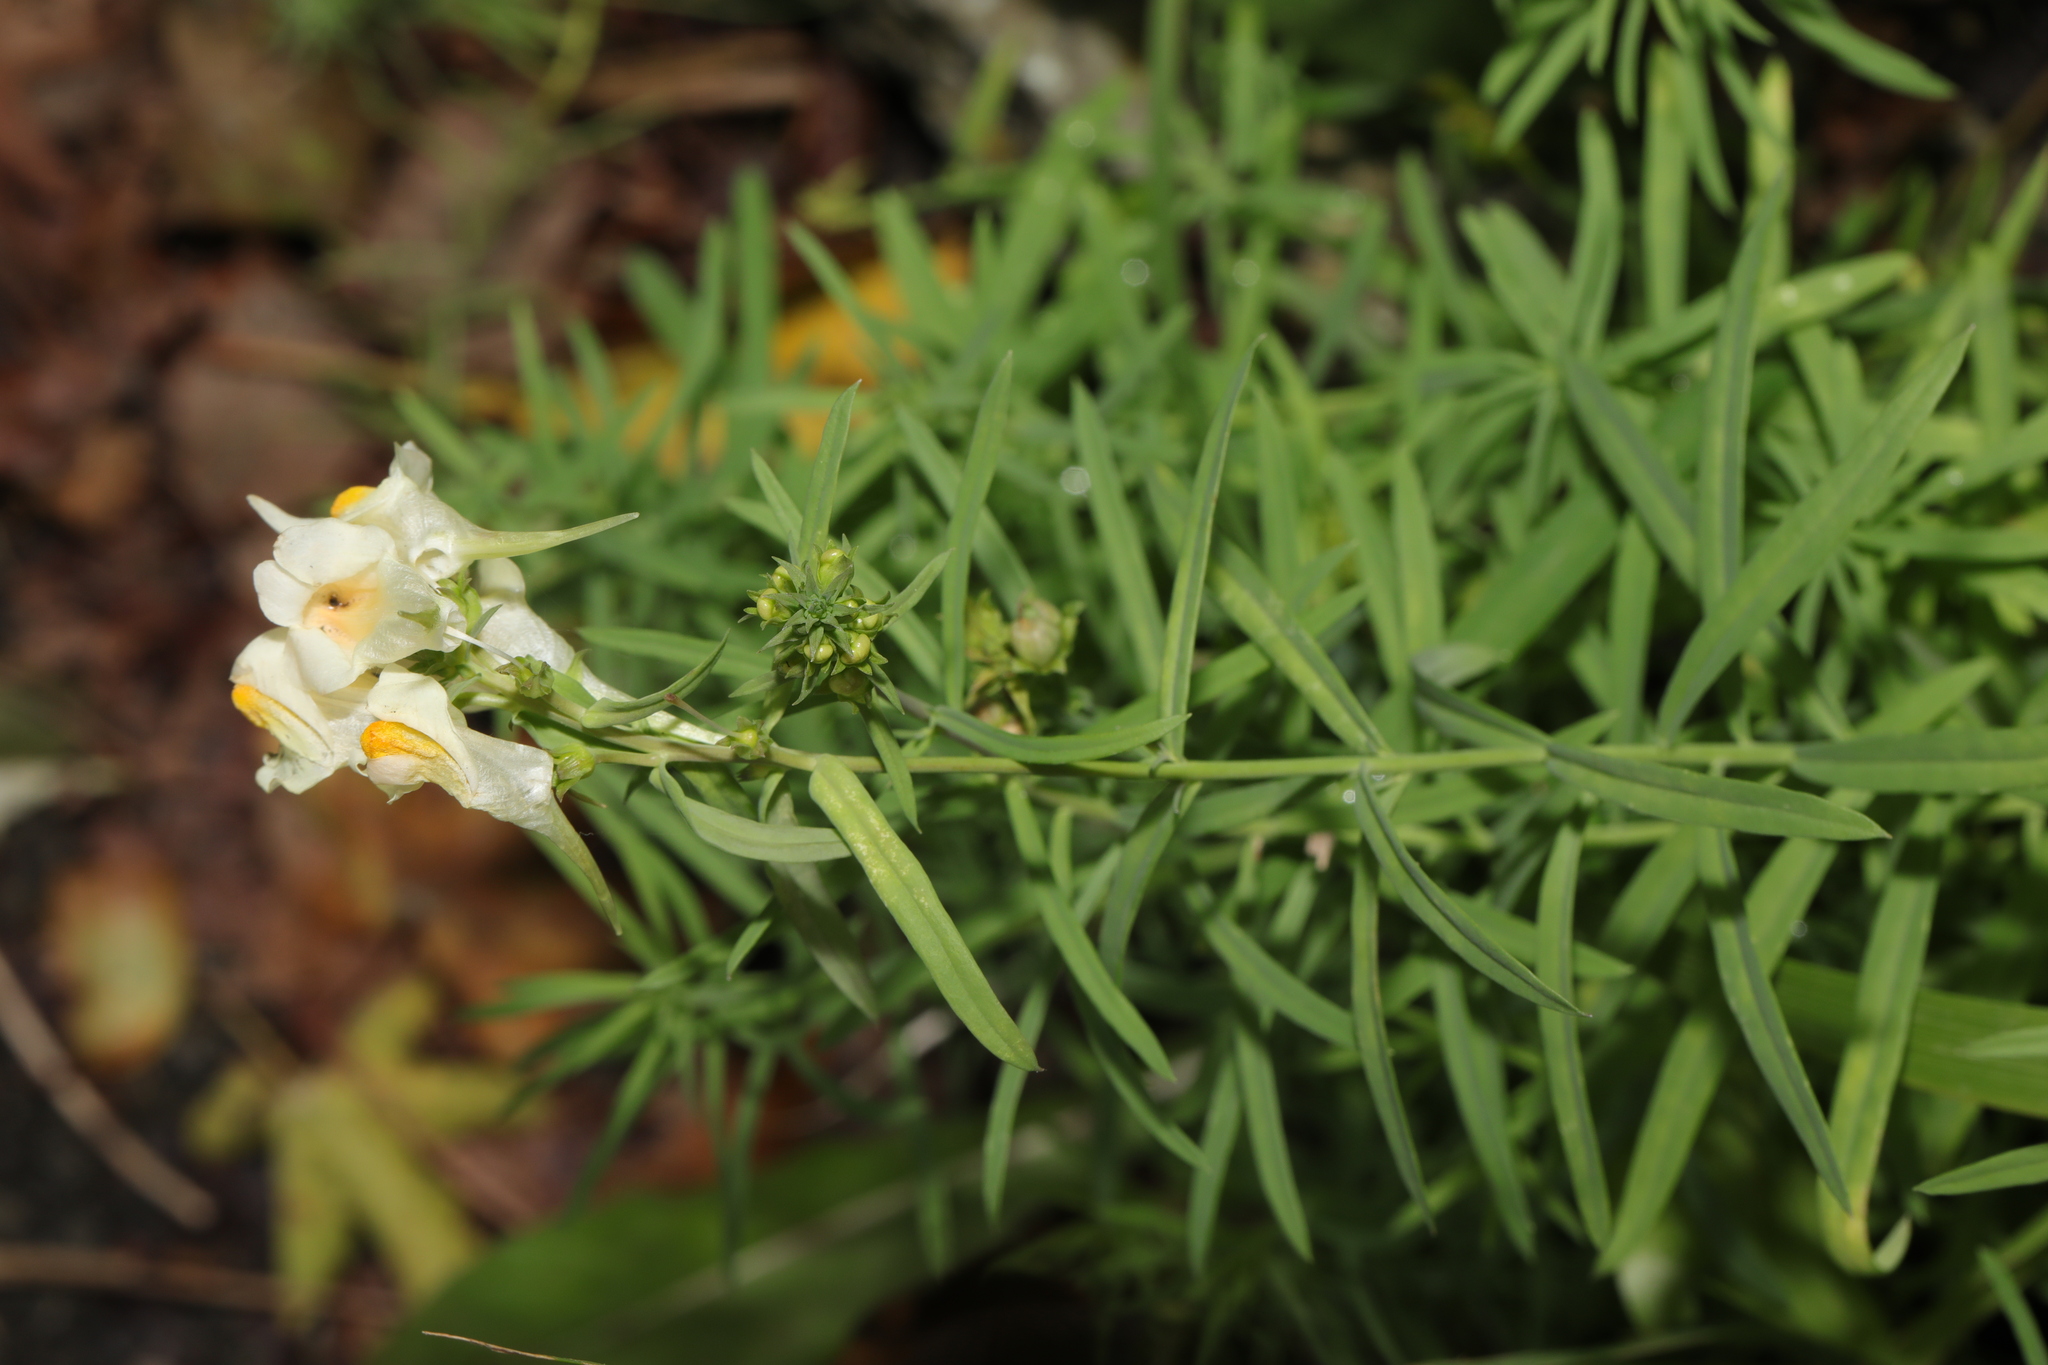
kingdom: Plantae
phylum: Tracheophyta
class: Magnoliopsida
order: Lamiales
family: Plantaginaceae
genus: Linaria
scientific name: Linaria vulgaris
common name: Butter and eggs
